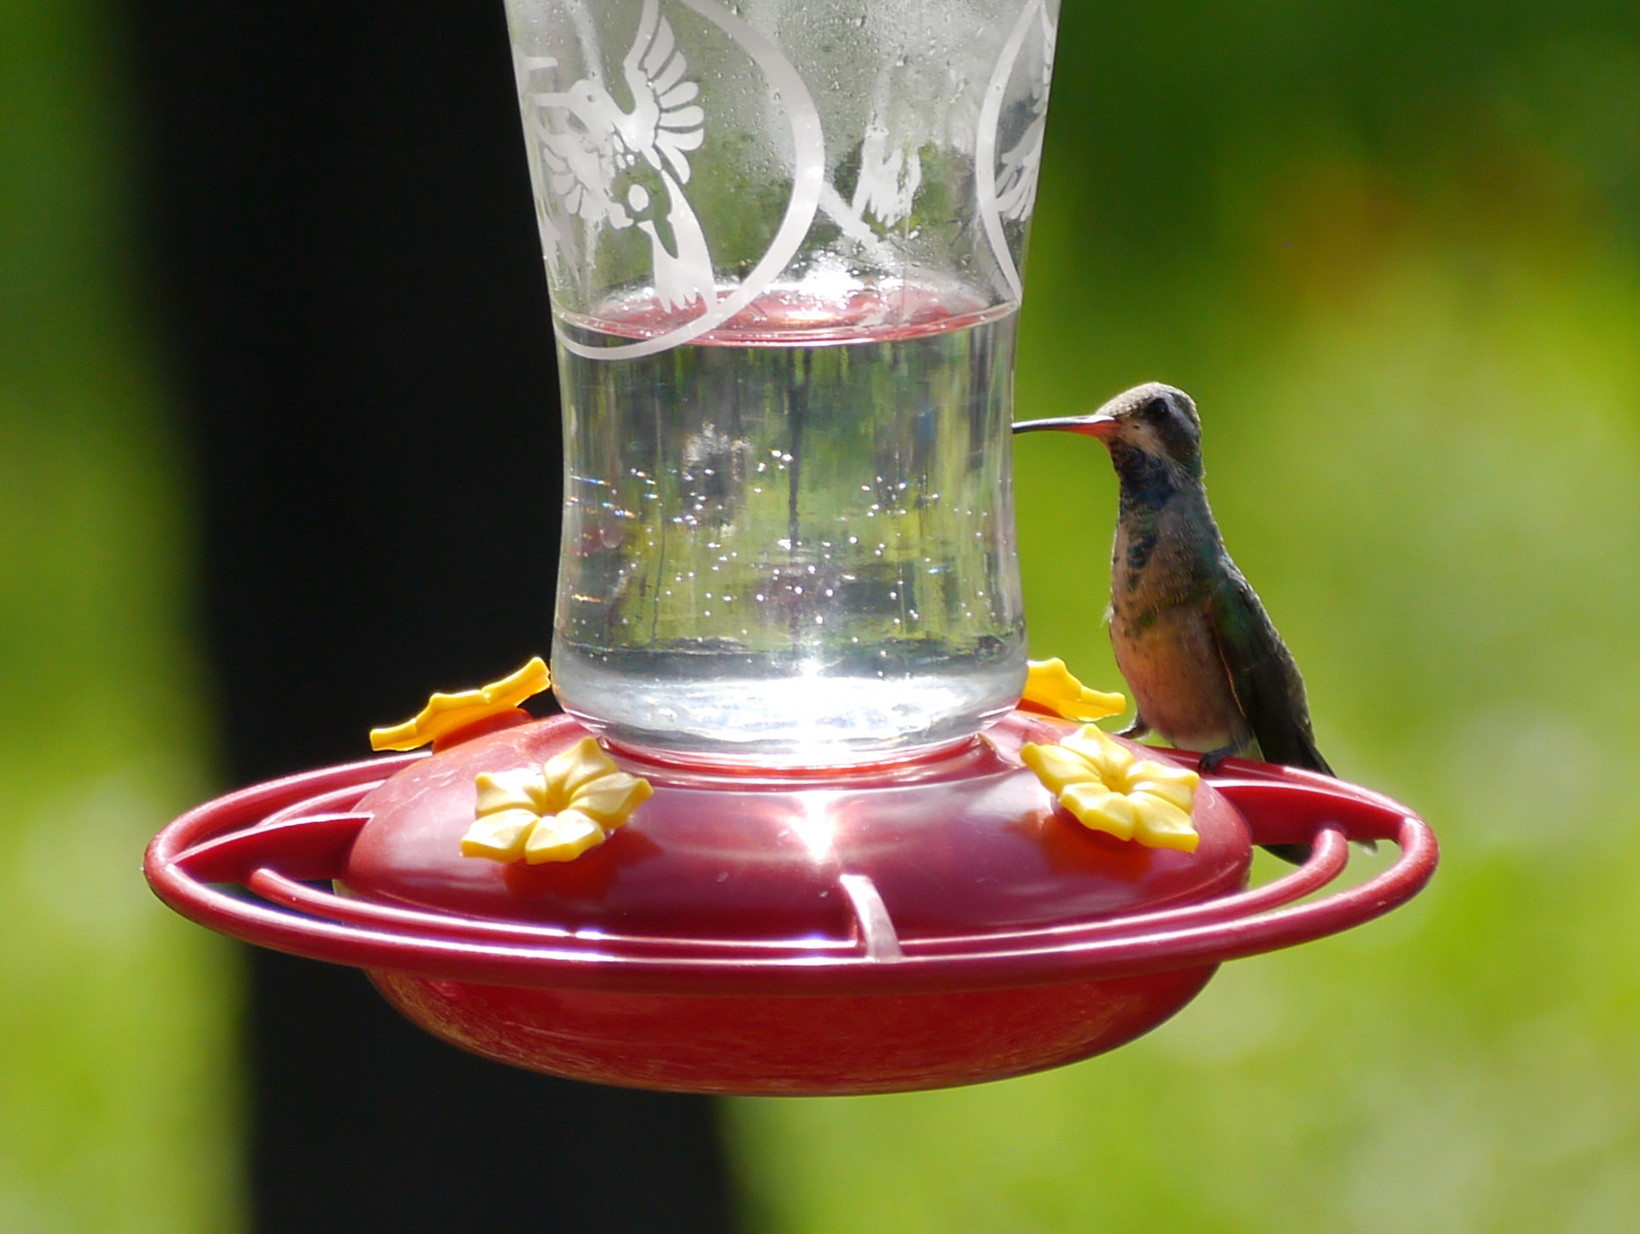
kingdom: Animalia
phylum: Chordata
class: Aves
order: Apodiformes
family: Trochilidae
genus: Cynanthus
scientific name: Cynanthus latirostris
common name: Broad-billed hummingbird
